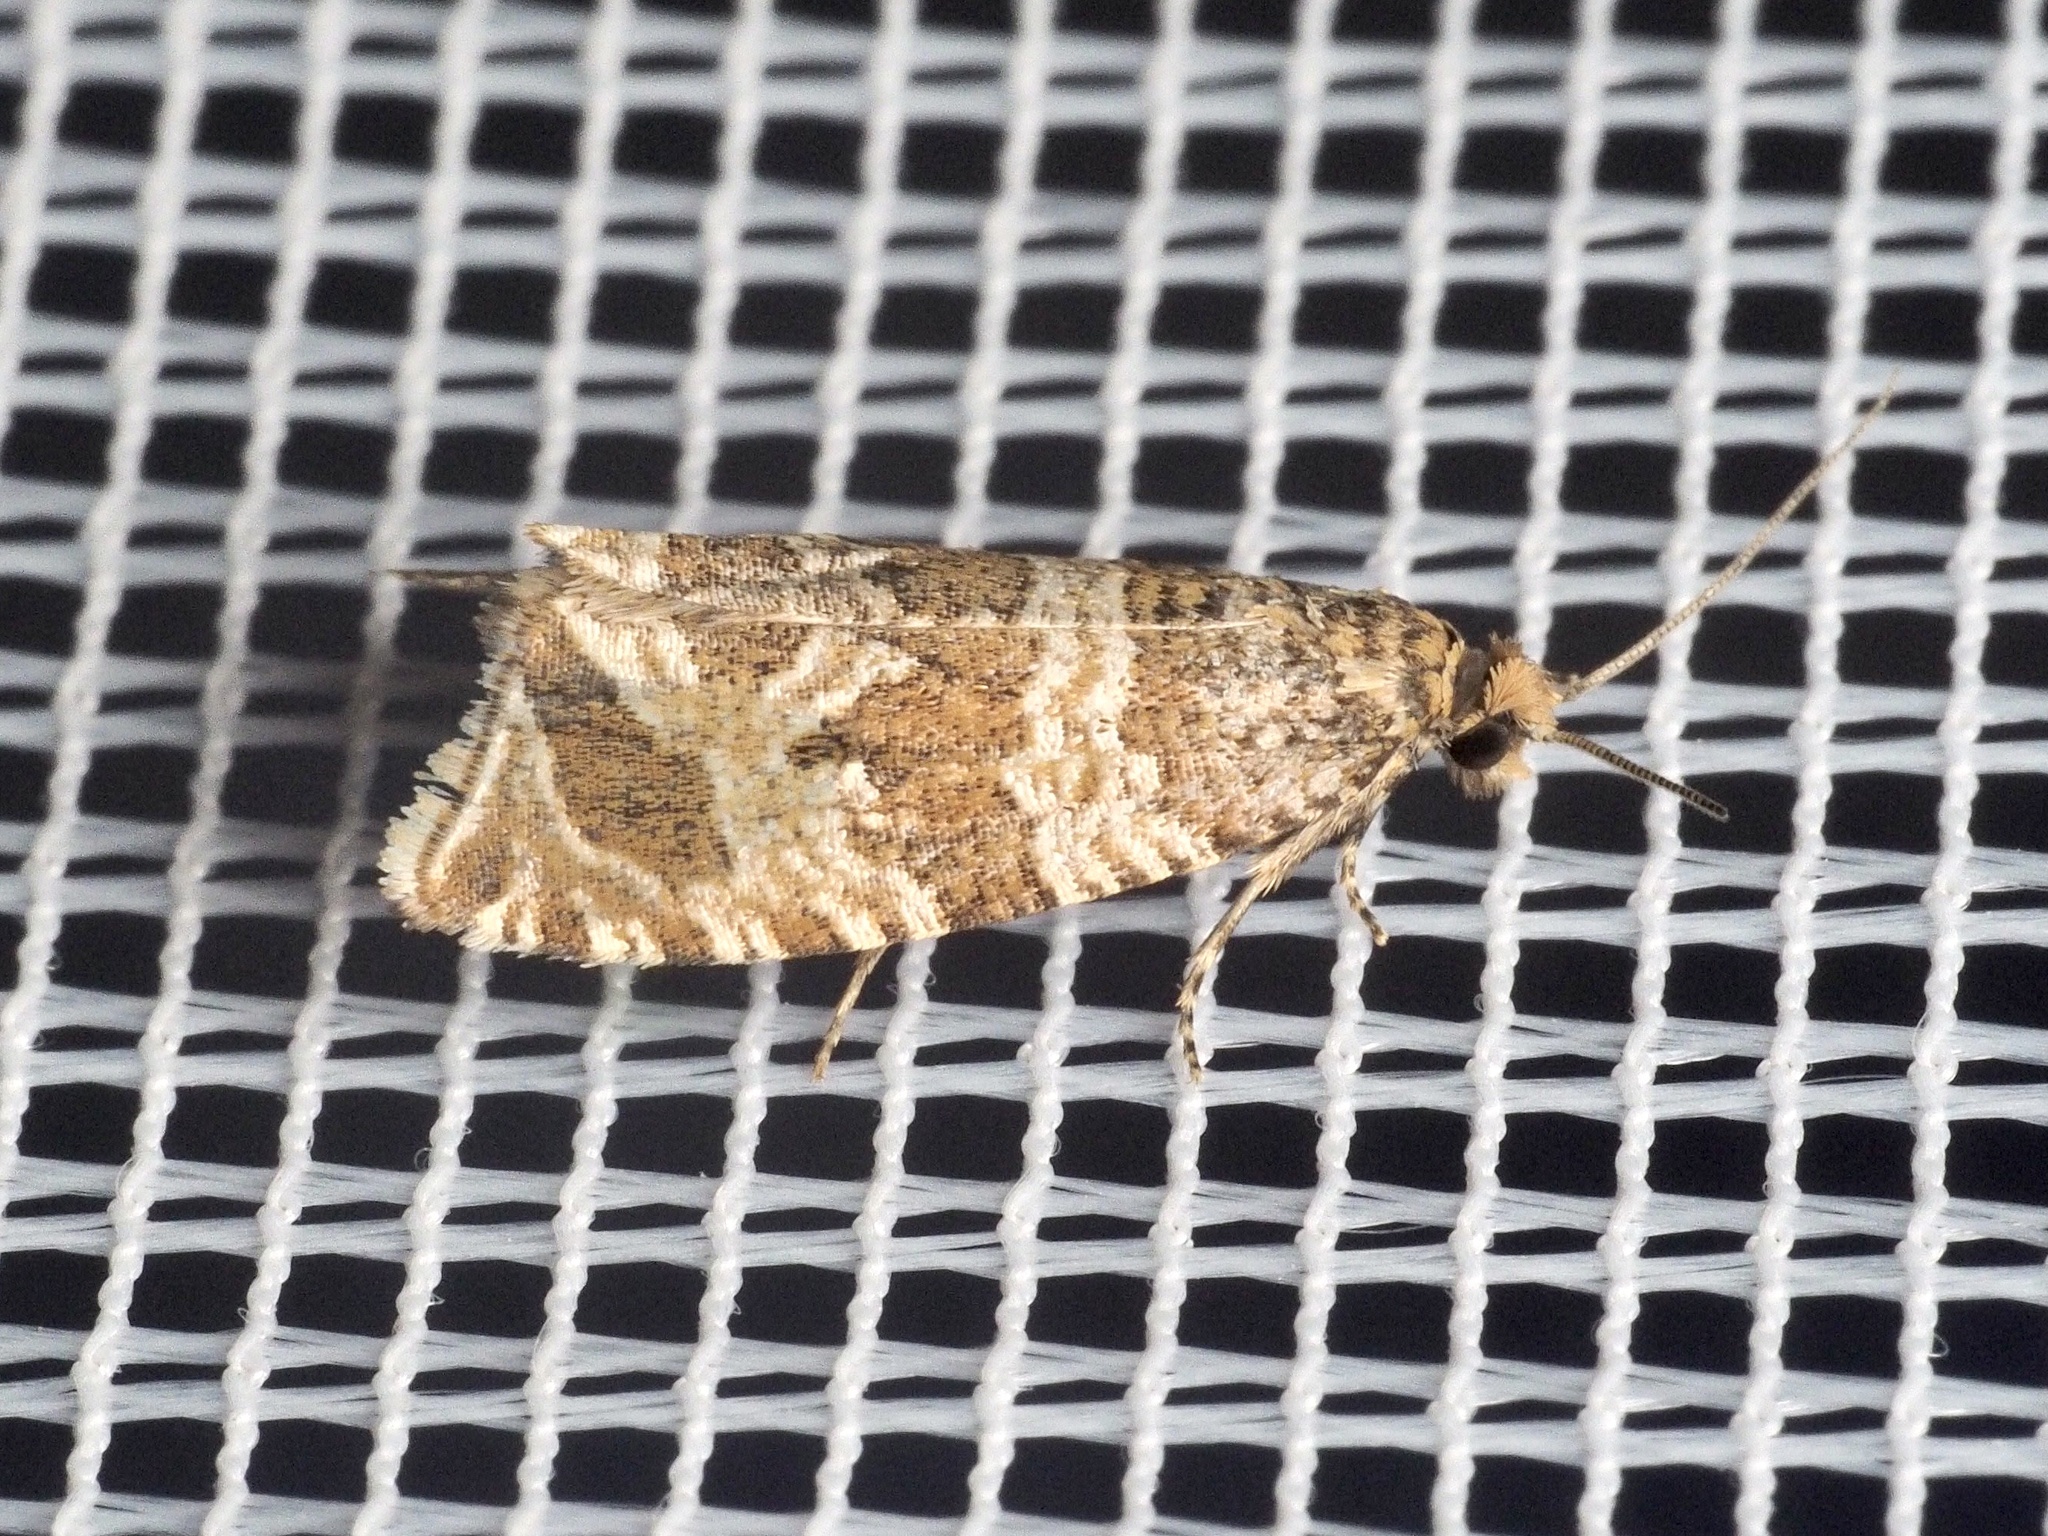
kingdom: Animalia
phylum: Arthropoda
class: Insecta
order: Lepidoptera
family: Tortricidae
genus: Syricoris
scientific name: Syricoris rivulana
